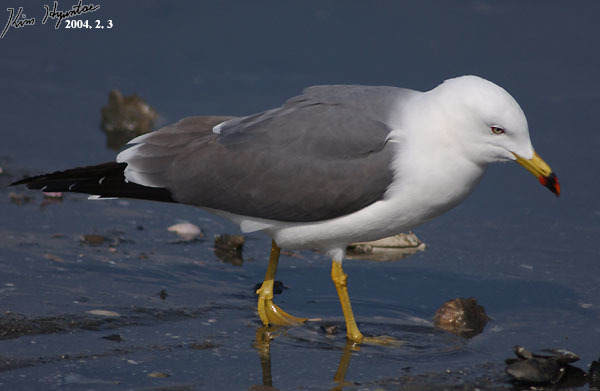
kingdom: Animalia
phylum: Chordata
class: Aves
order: Charadriiformes
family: Laridae
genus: Larus
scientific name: Larus crassirostris
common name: Black-tailed gull
